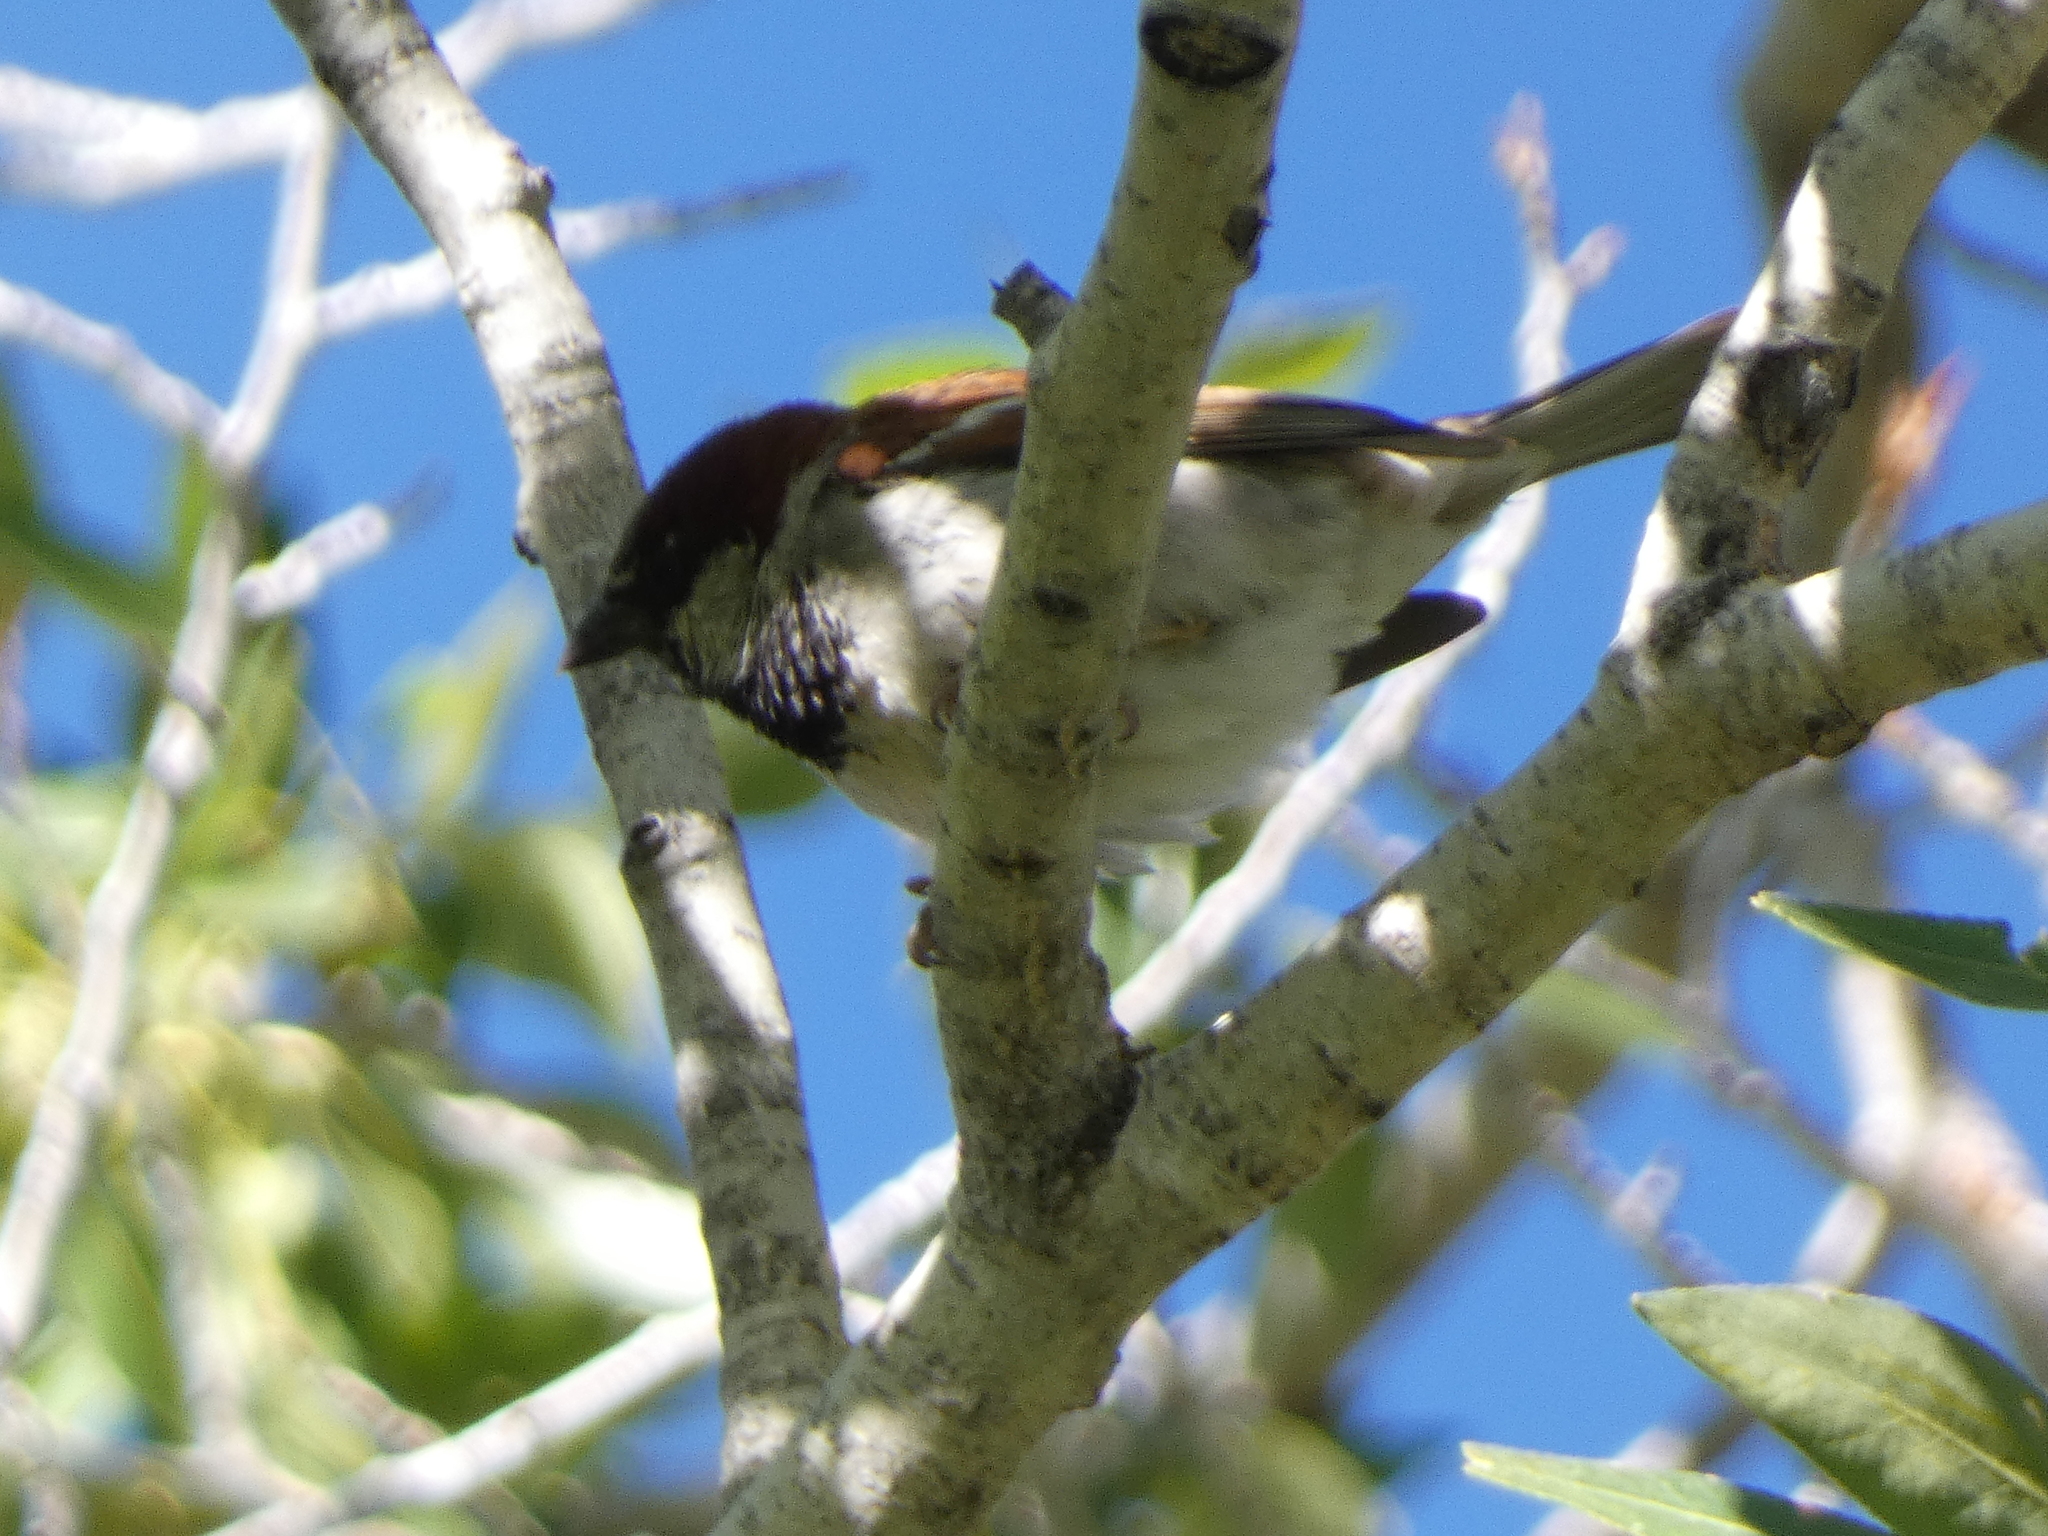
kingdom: Animalia
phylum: Chordata
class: Aves
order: Passeriformes
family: Passeridae
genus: Passer
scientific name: Passer domesticus
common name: House sparrow
